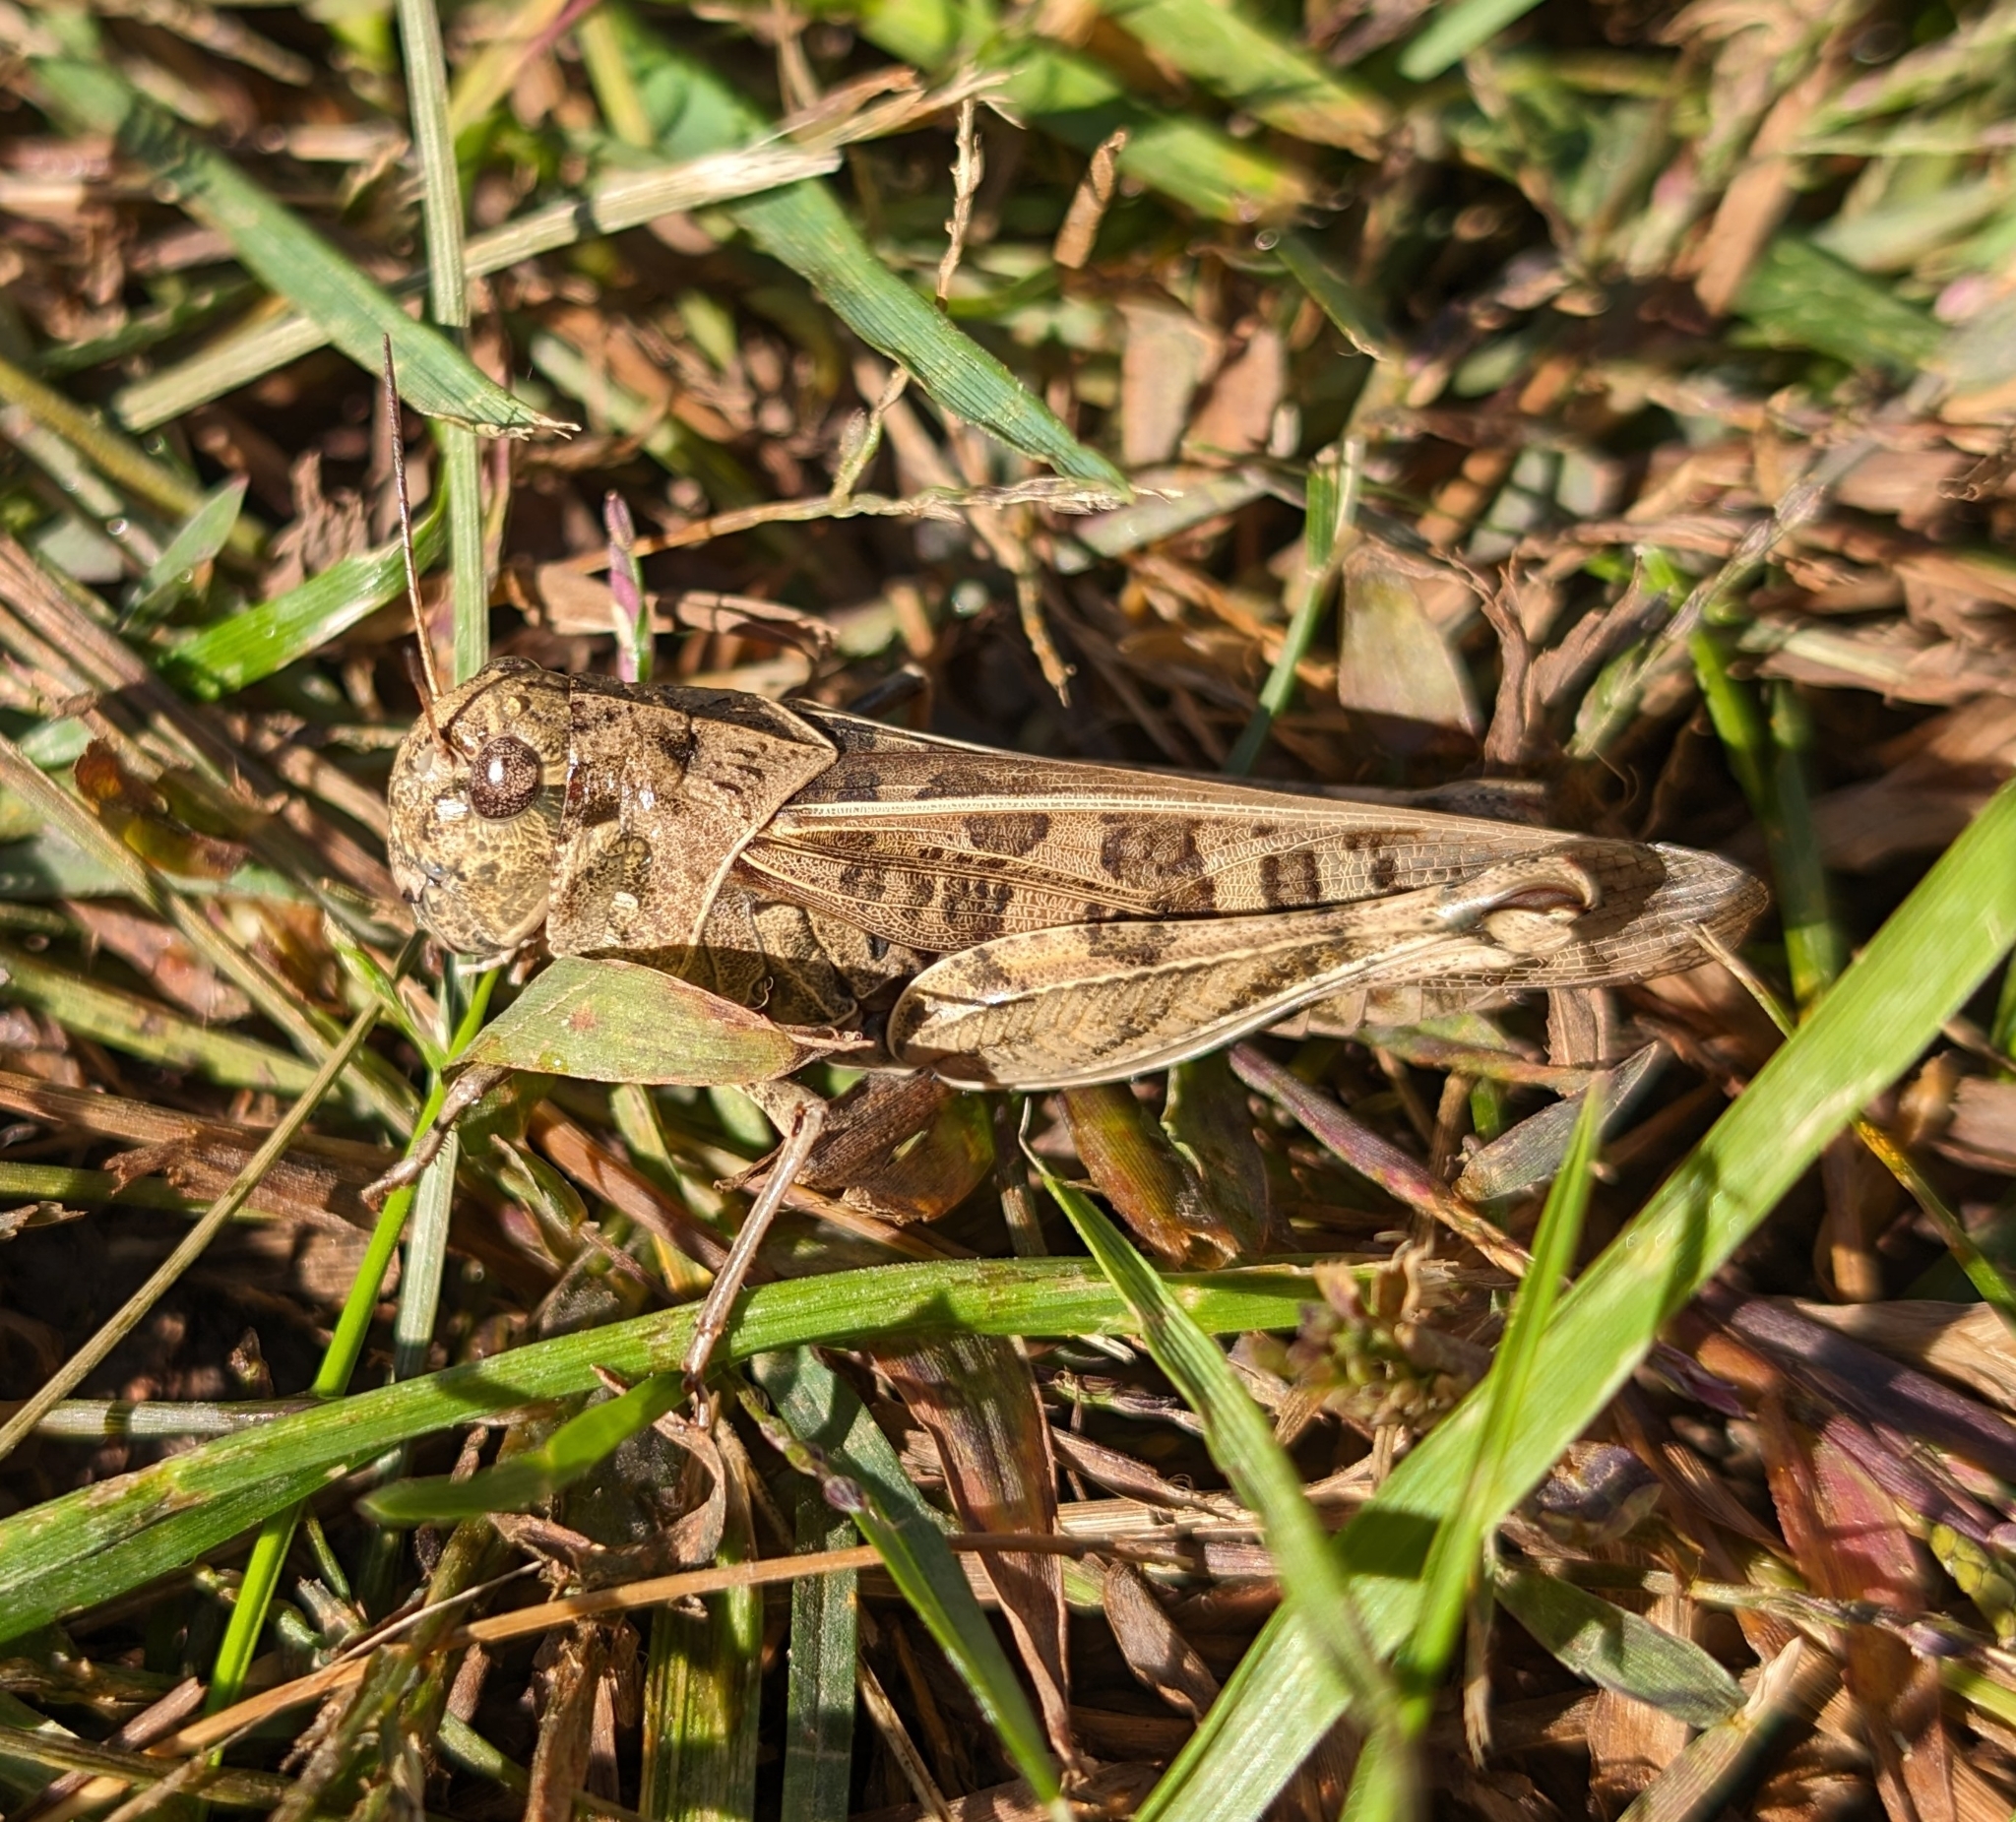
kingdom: Animalia
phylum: Arthropoda
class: Insecta
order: Orthoptera
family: Acrididae
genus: Hippiscus
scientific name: Hippiscus ocelote
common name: Wrinkled grasshopper
